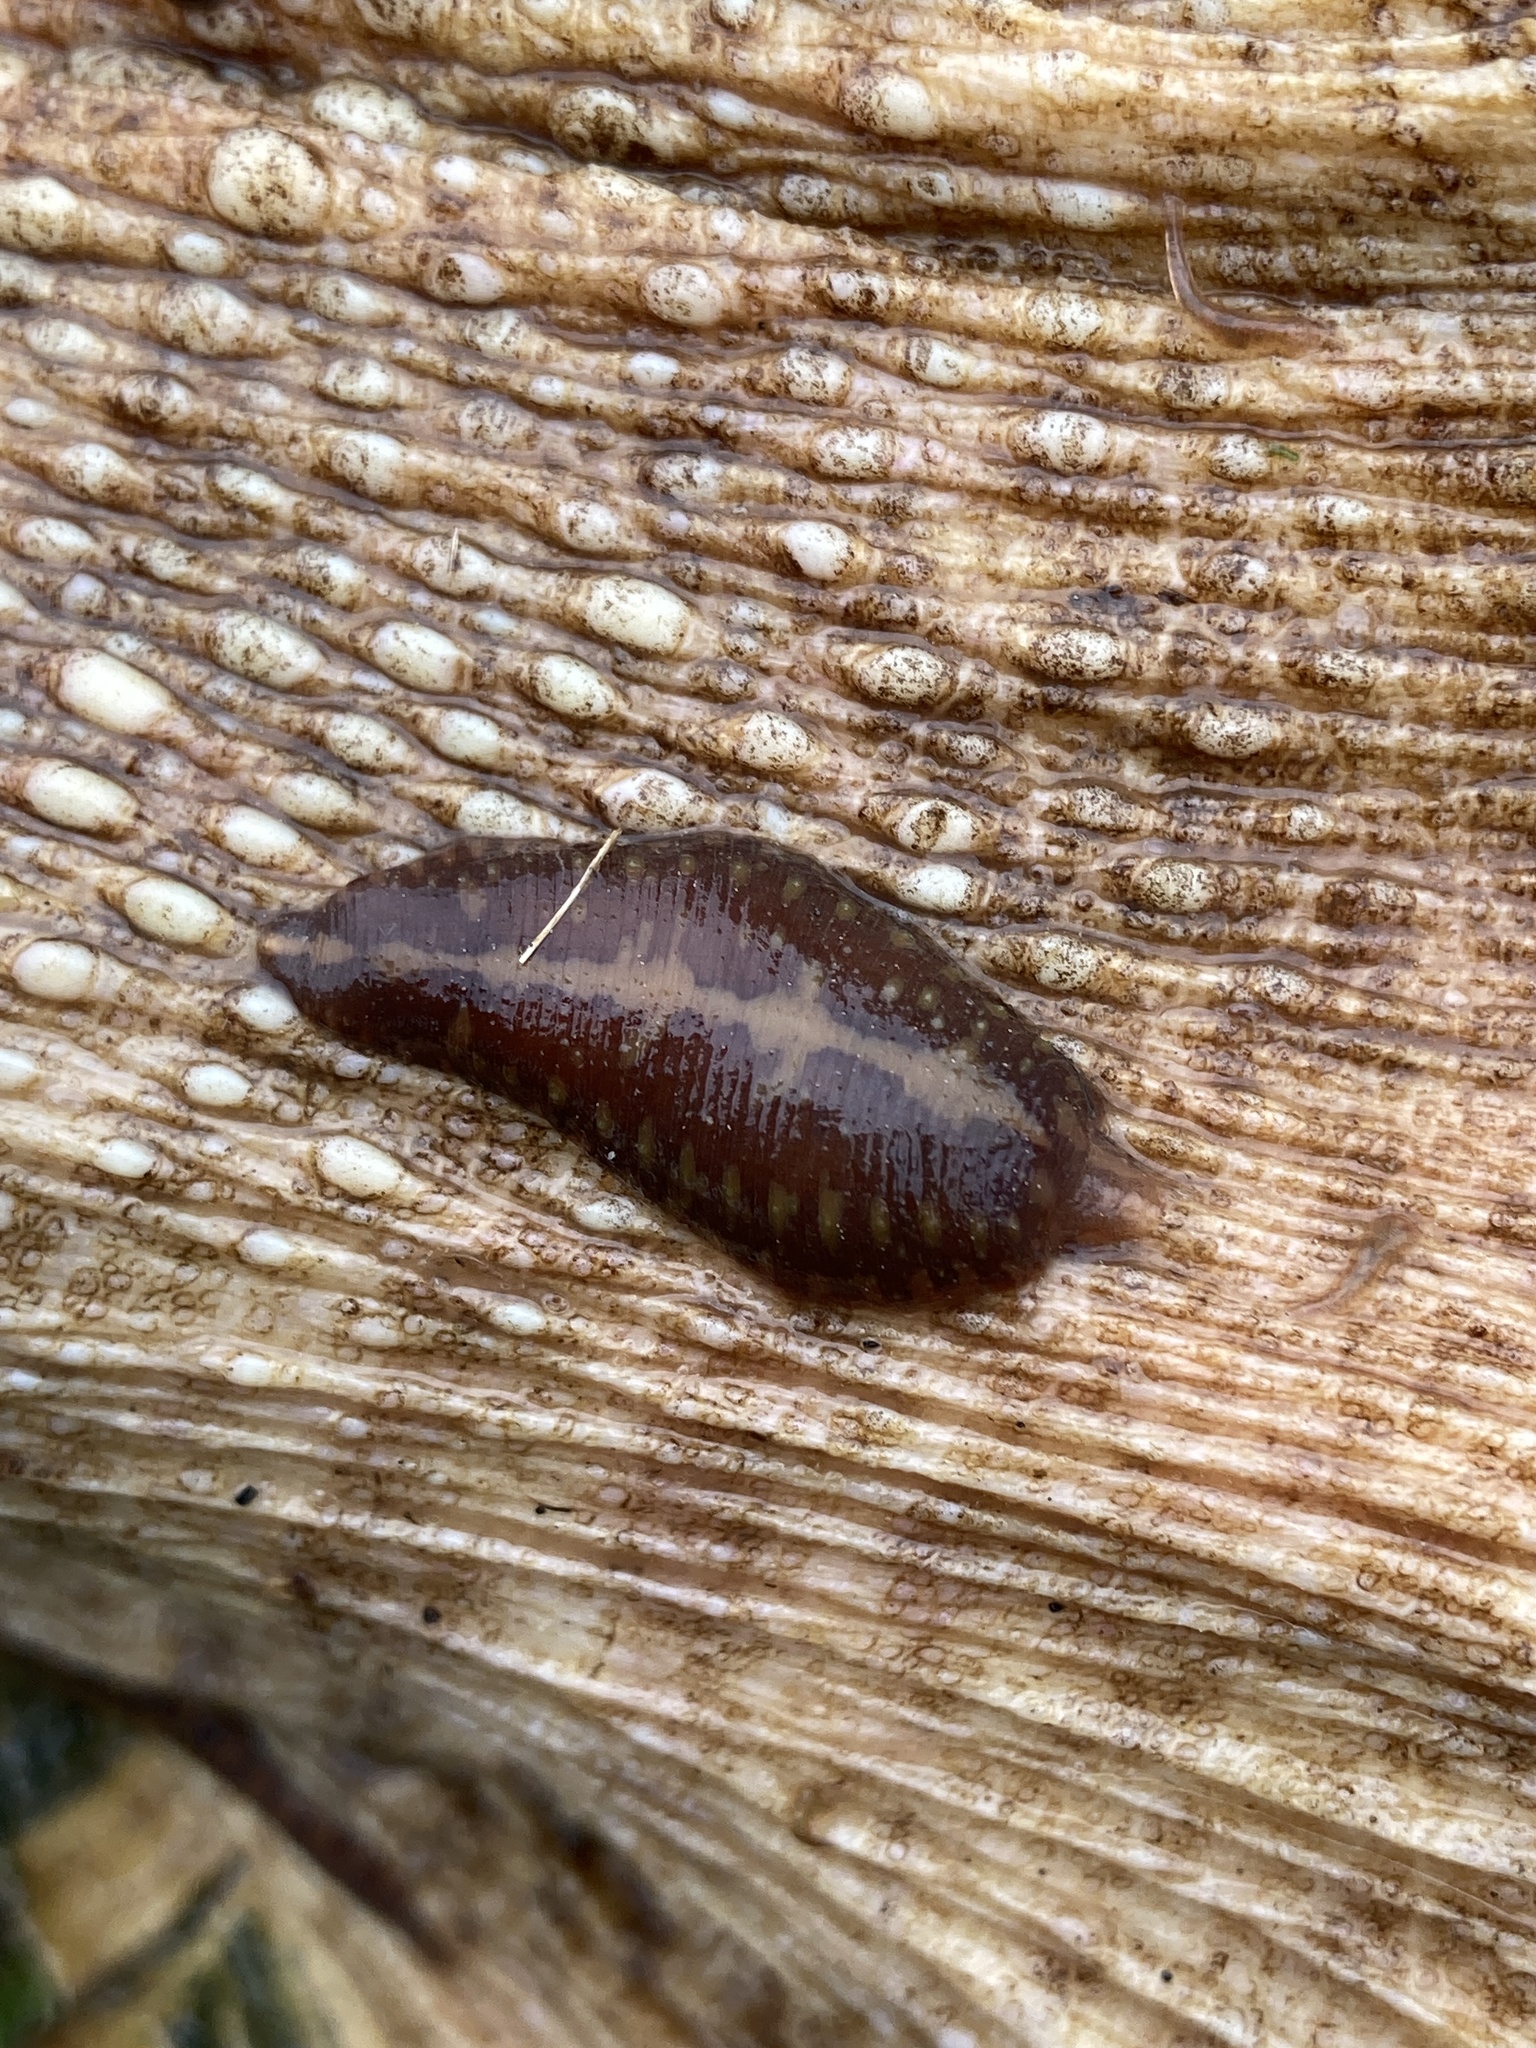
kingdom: Animalia
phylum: Annelida
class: Clitellata
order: Rhynchobdellida
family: Glossiphoniidae
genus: Placobdella
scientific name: Placobdella parasitica
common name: Smooth turtle leech
